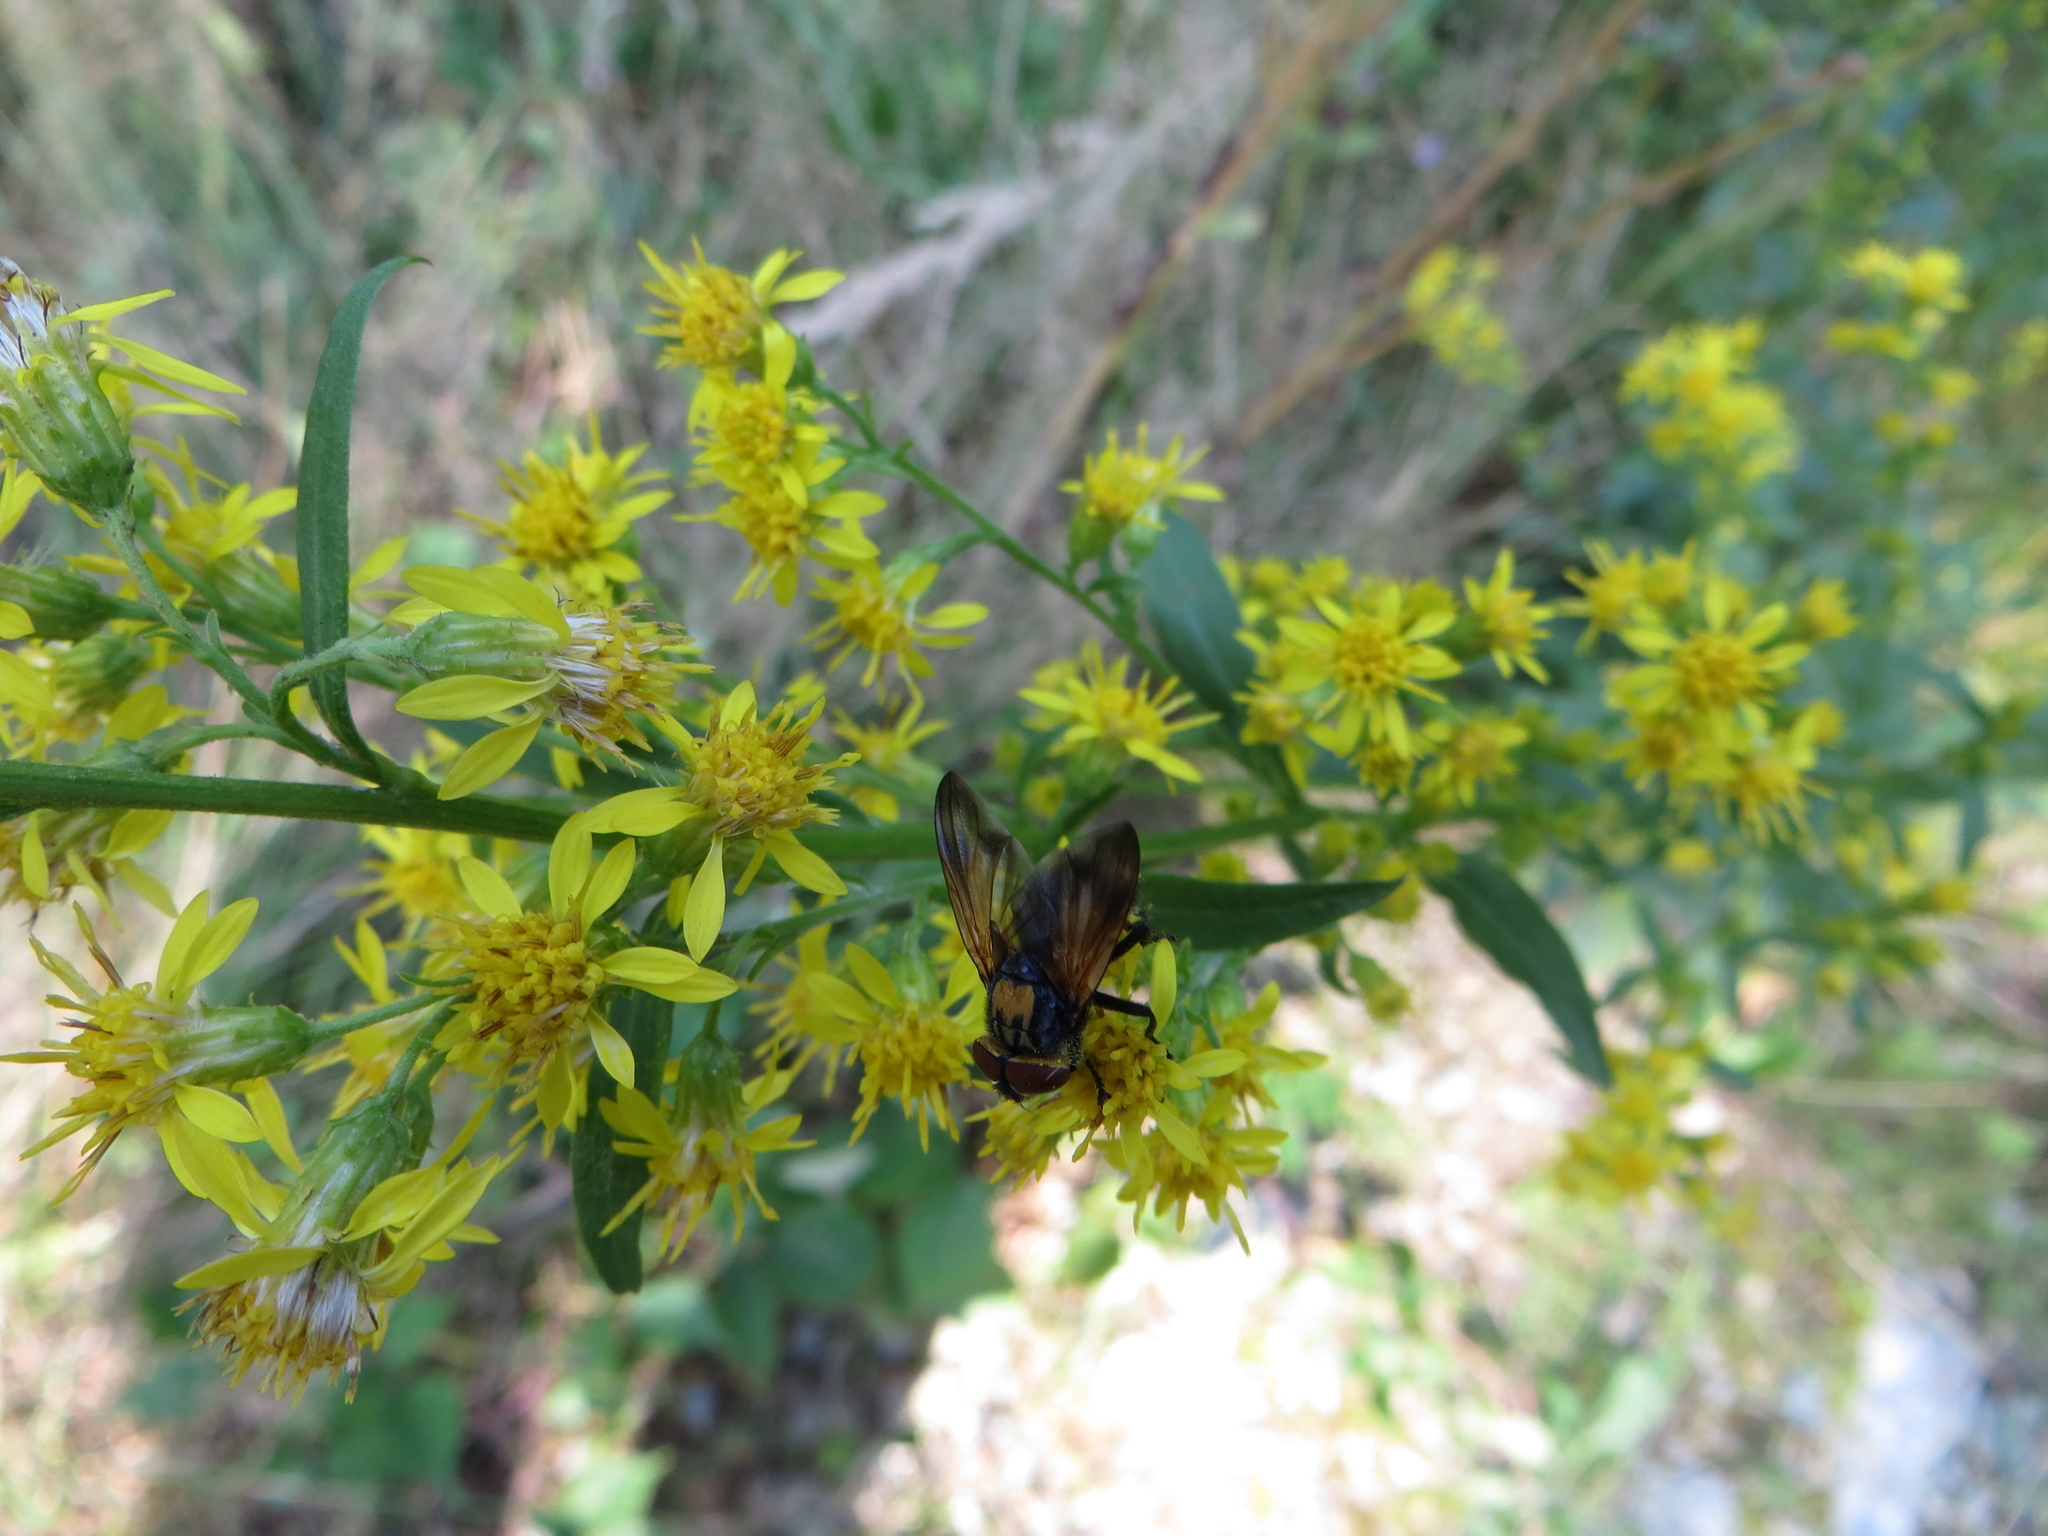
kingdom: Animalia
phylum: Arthropoda
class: Insecta
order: Diptera
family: Tachinidae
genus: Phasia
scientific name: Phasia aurigera
